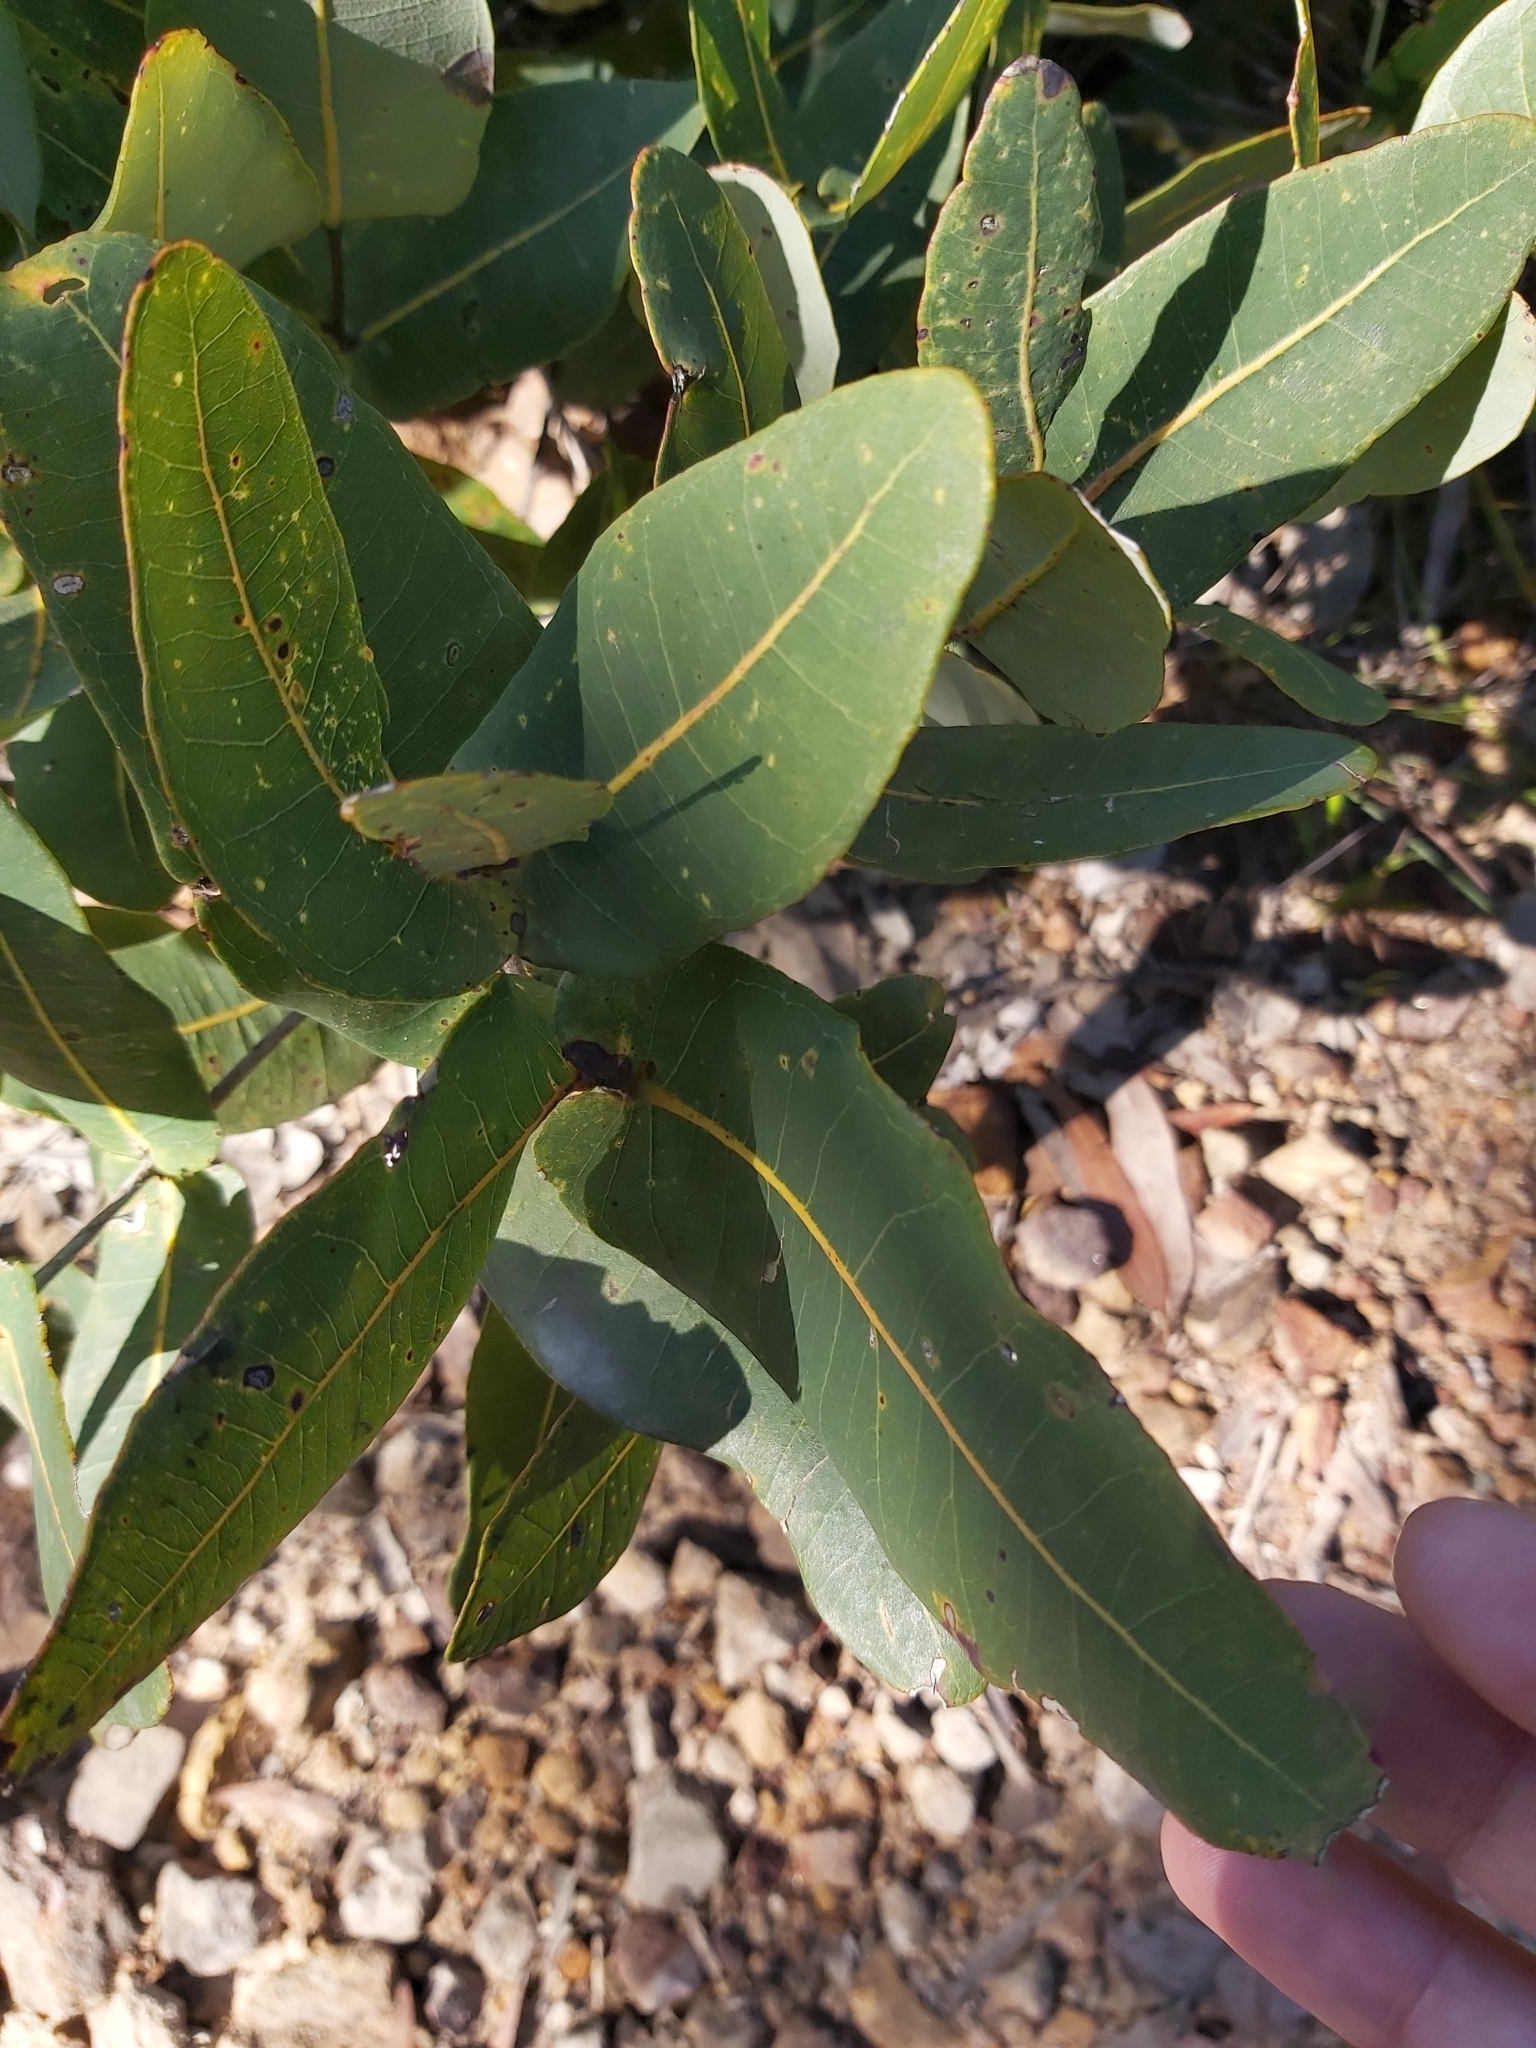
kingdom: Plantae
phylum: Tracheophyta
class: Magnoliopsida
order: Myrtales
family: Myrtaceae
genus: Angophora
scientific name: Angophora hispida
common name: Dwarf-apple
